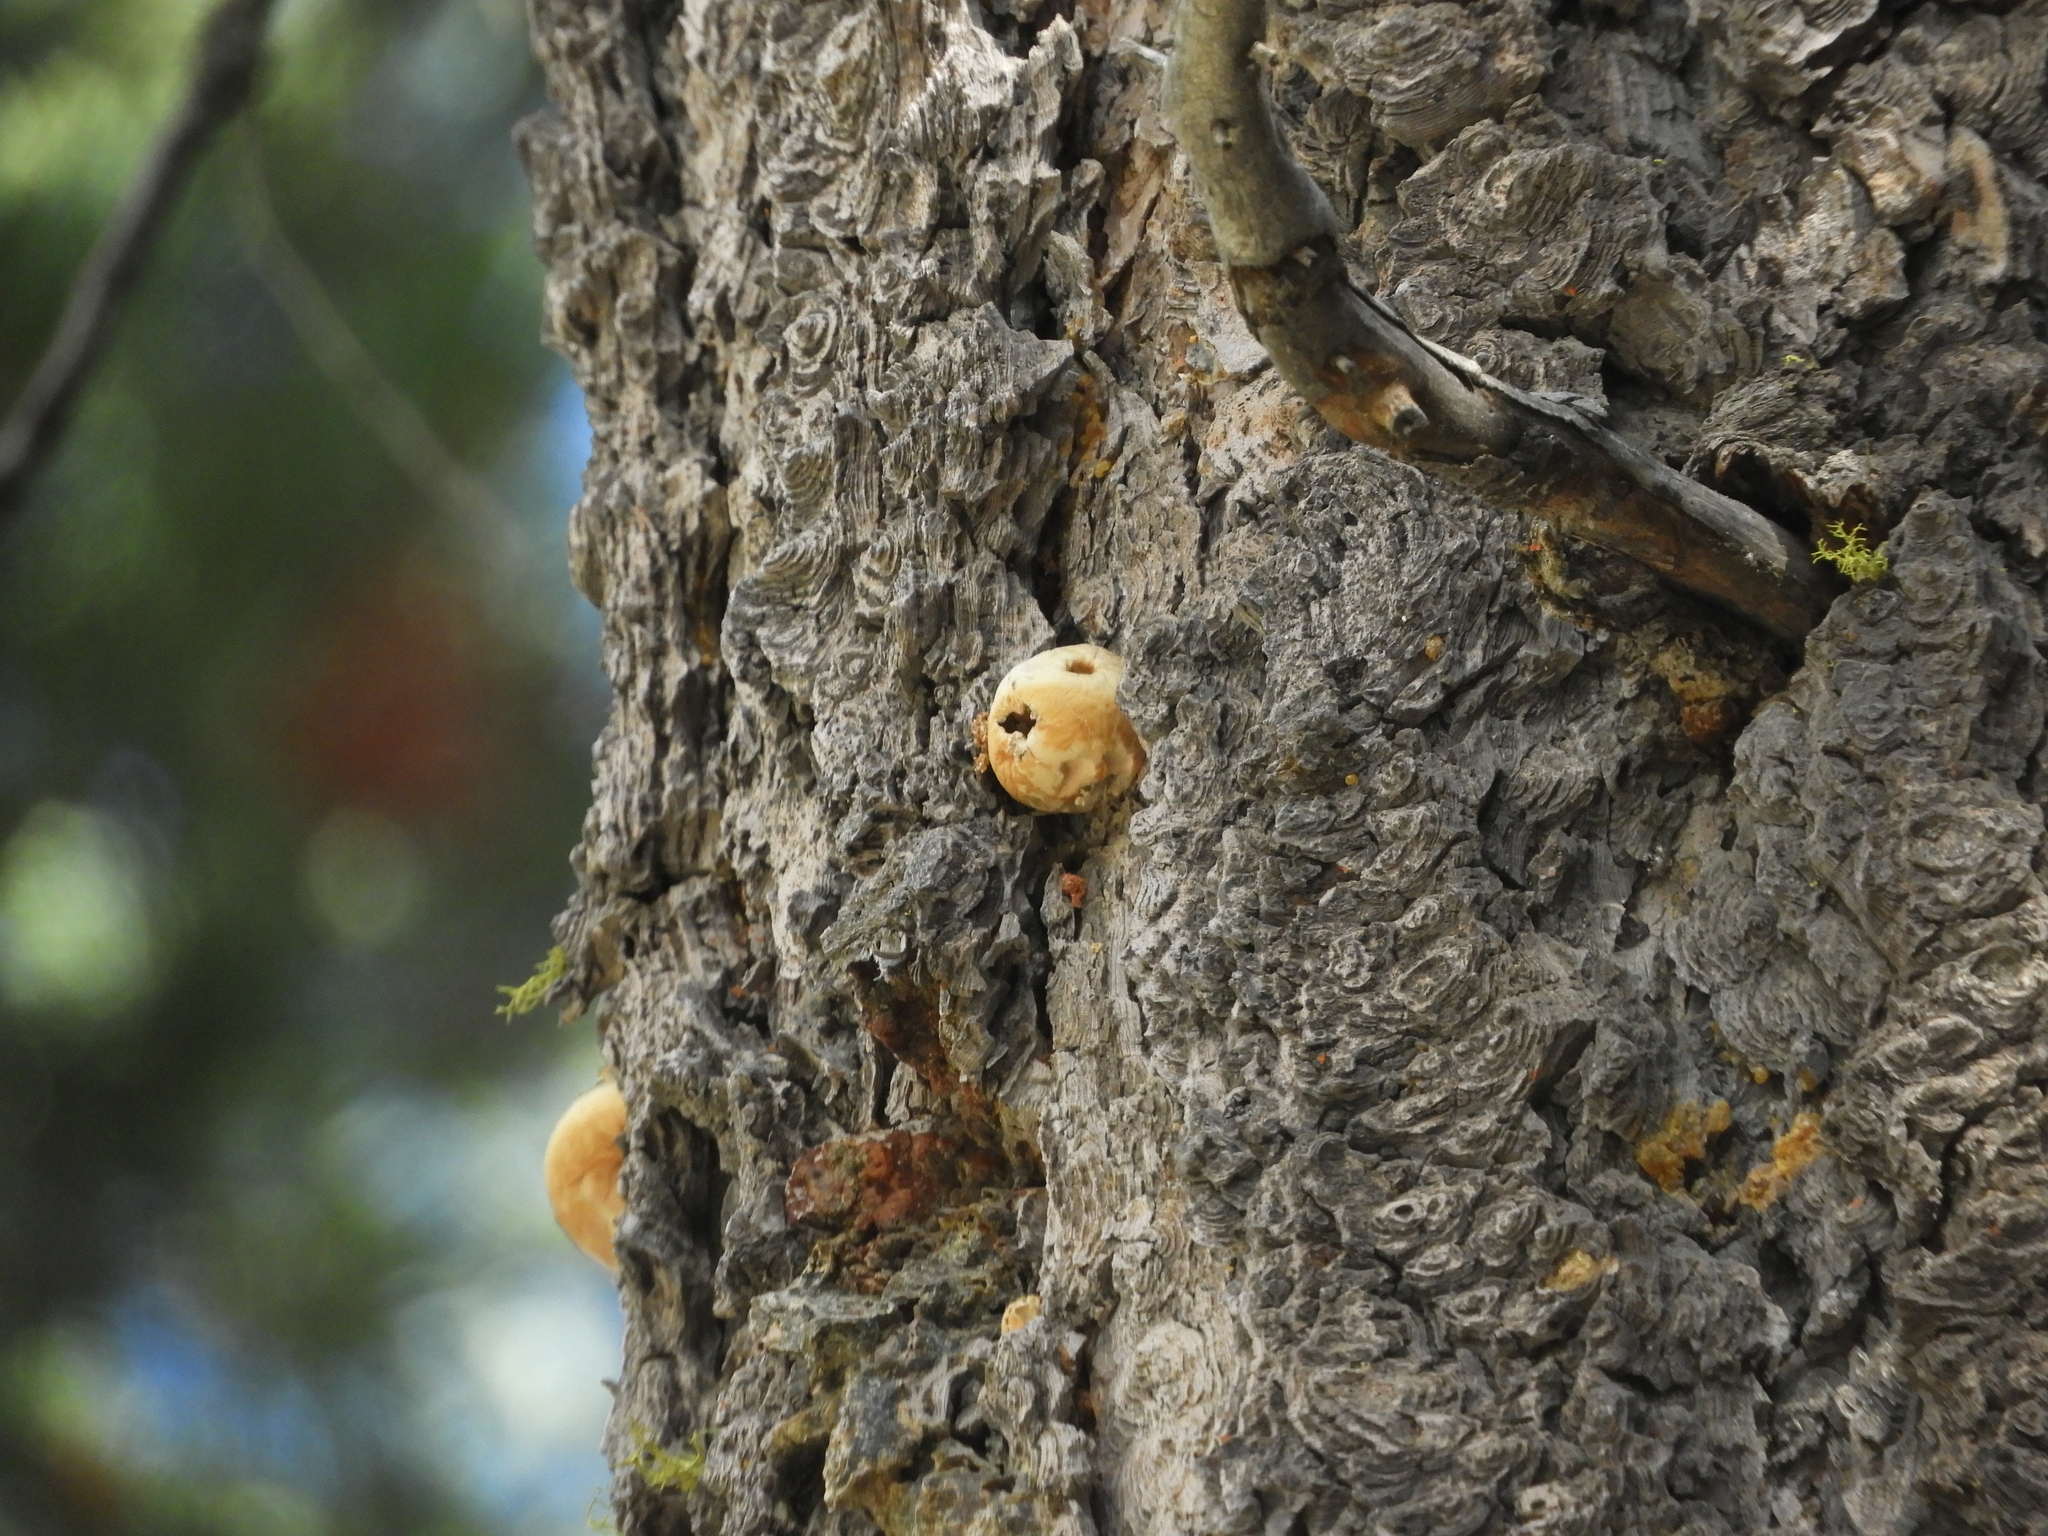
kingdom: Fungi
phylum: Basidiomycota
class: Agaricomycetes
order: Polyporales
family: Polyporaceae
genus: Cryptoporus
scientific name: Cryptoporus volvatus
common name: Veiled polypore
